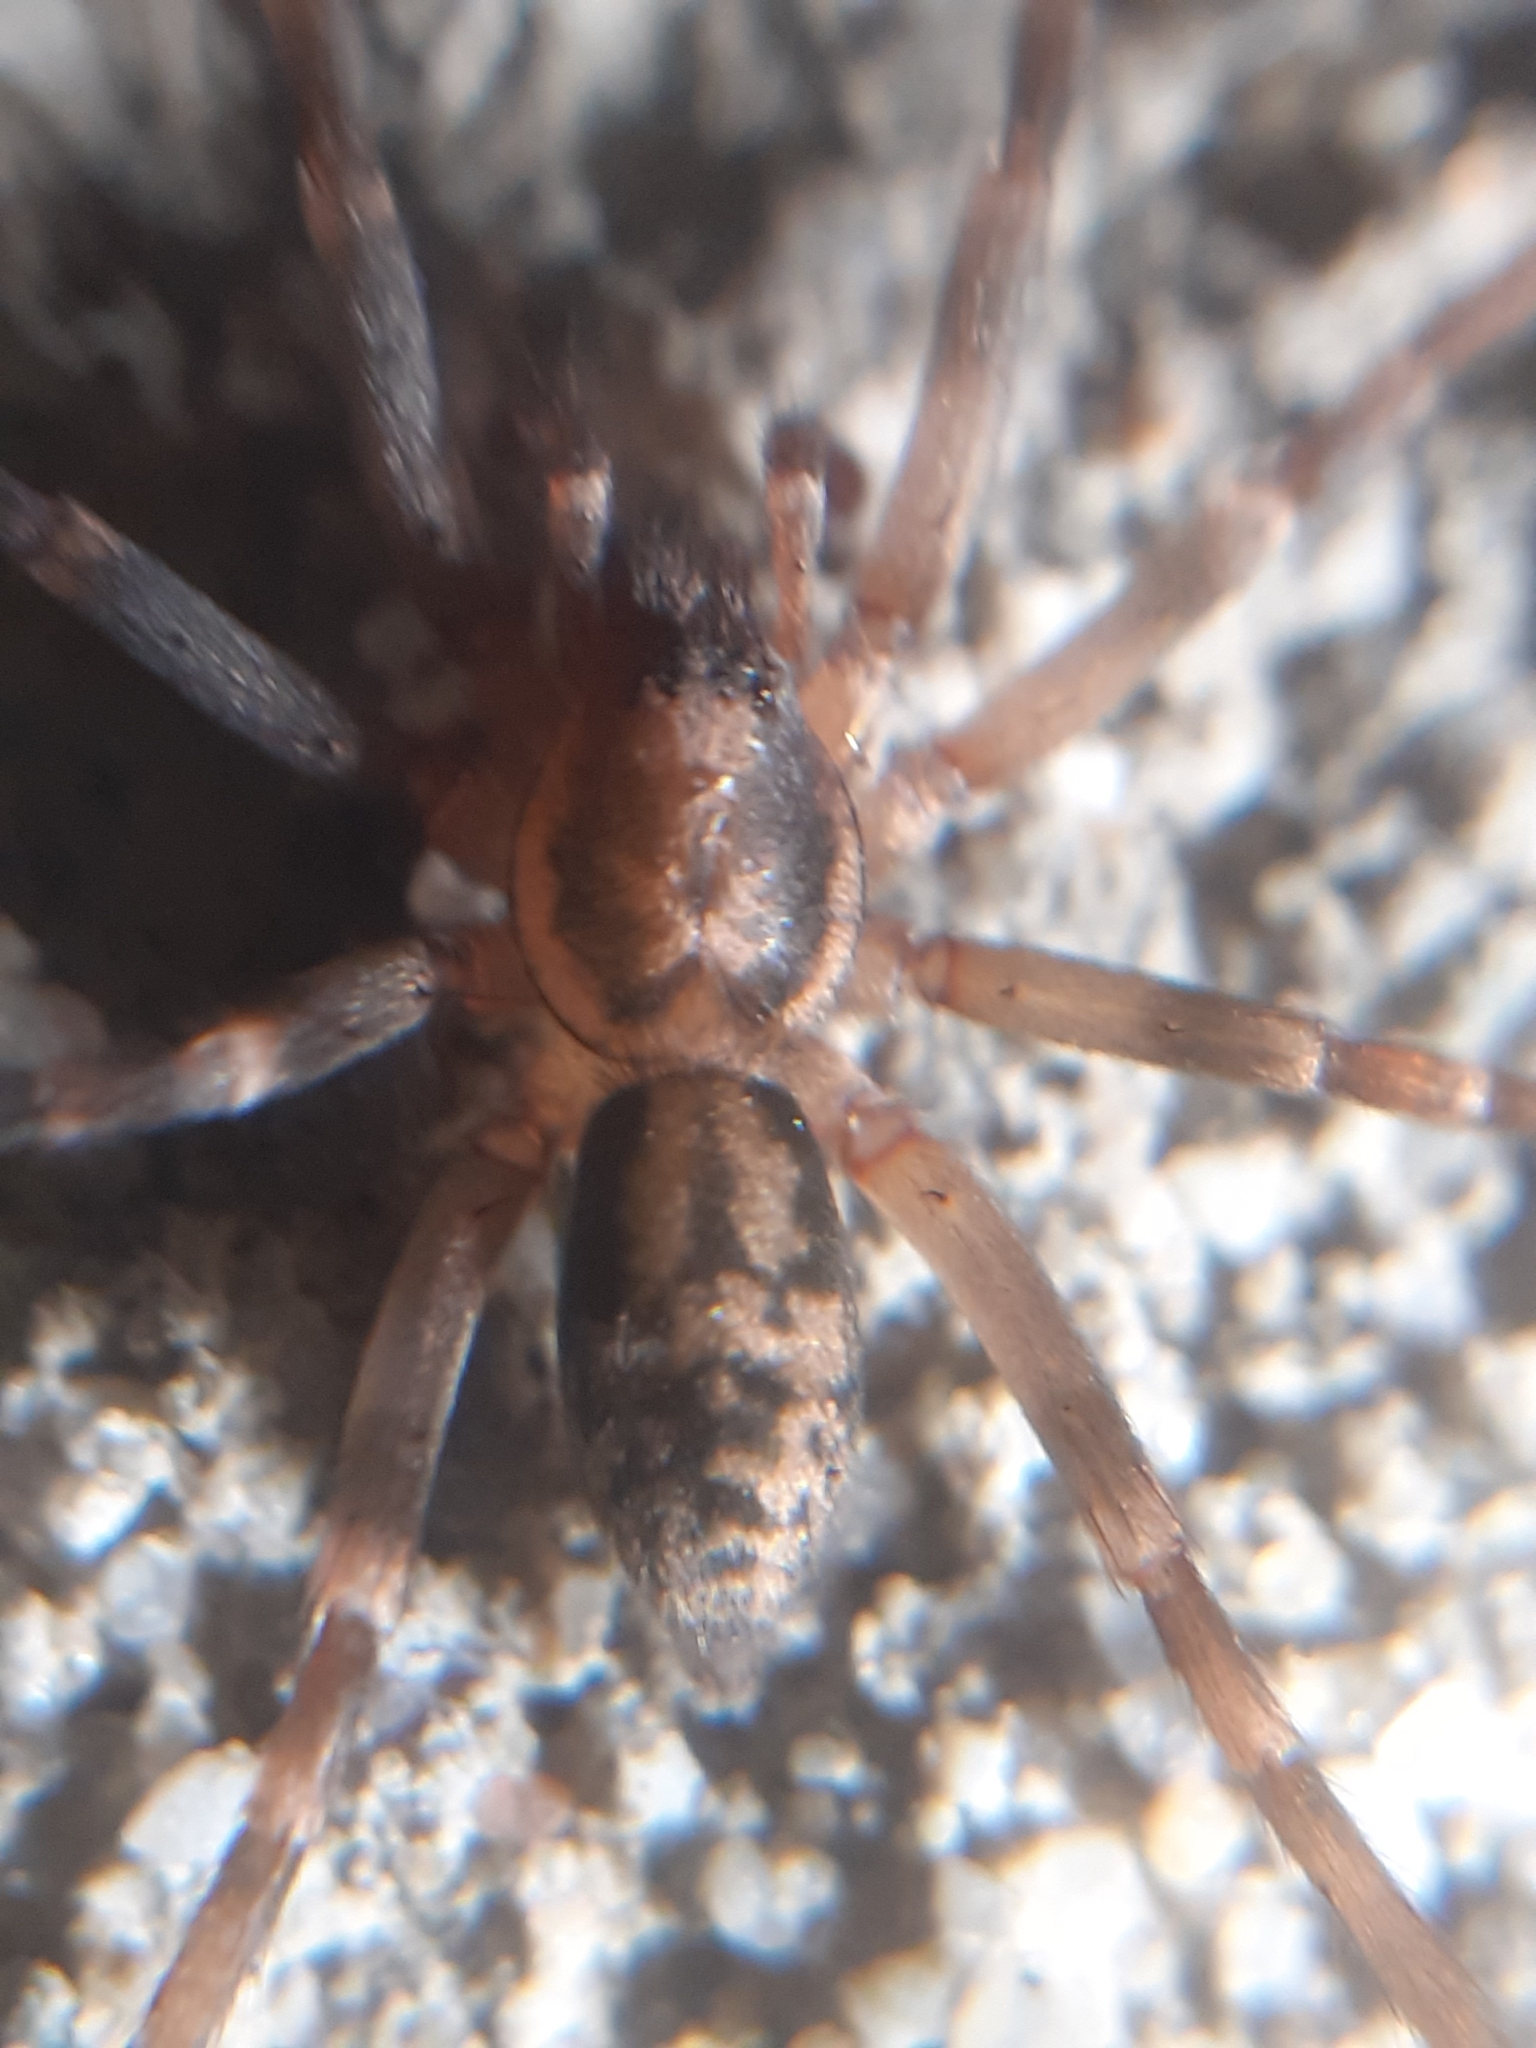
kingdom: Animalia
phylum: Arthropoda
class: Arachnida
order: Araneae
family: Liocranidae
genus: Liocranum
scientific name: Liocranum rupicola
